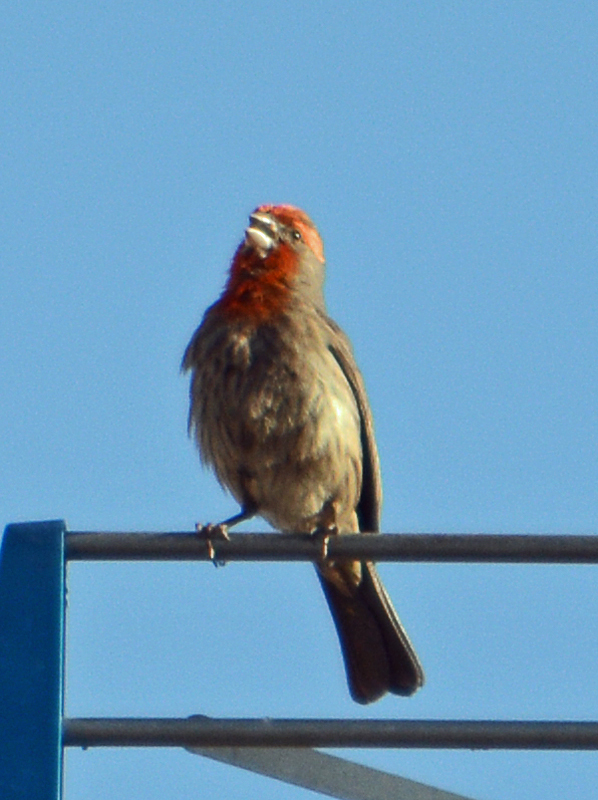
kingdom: Animalia
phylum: Chordata
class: Aves
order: Passeriformes
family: Fringillidae
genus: Haemorhous
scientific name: Haemorhous mexicanus
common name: House finch
